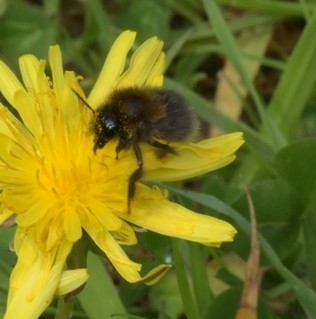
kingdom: Animalia
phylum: Arthropoda
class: Insecta
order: Hymenoptera
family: Apidae
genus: Bombus
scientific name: Bombus hypnorum
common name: New garden bumblebee
